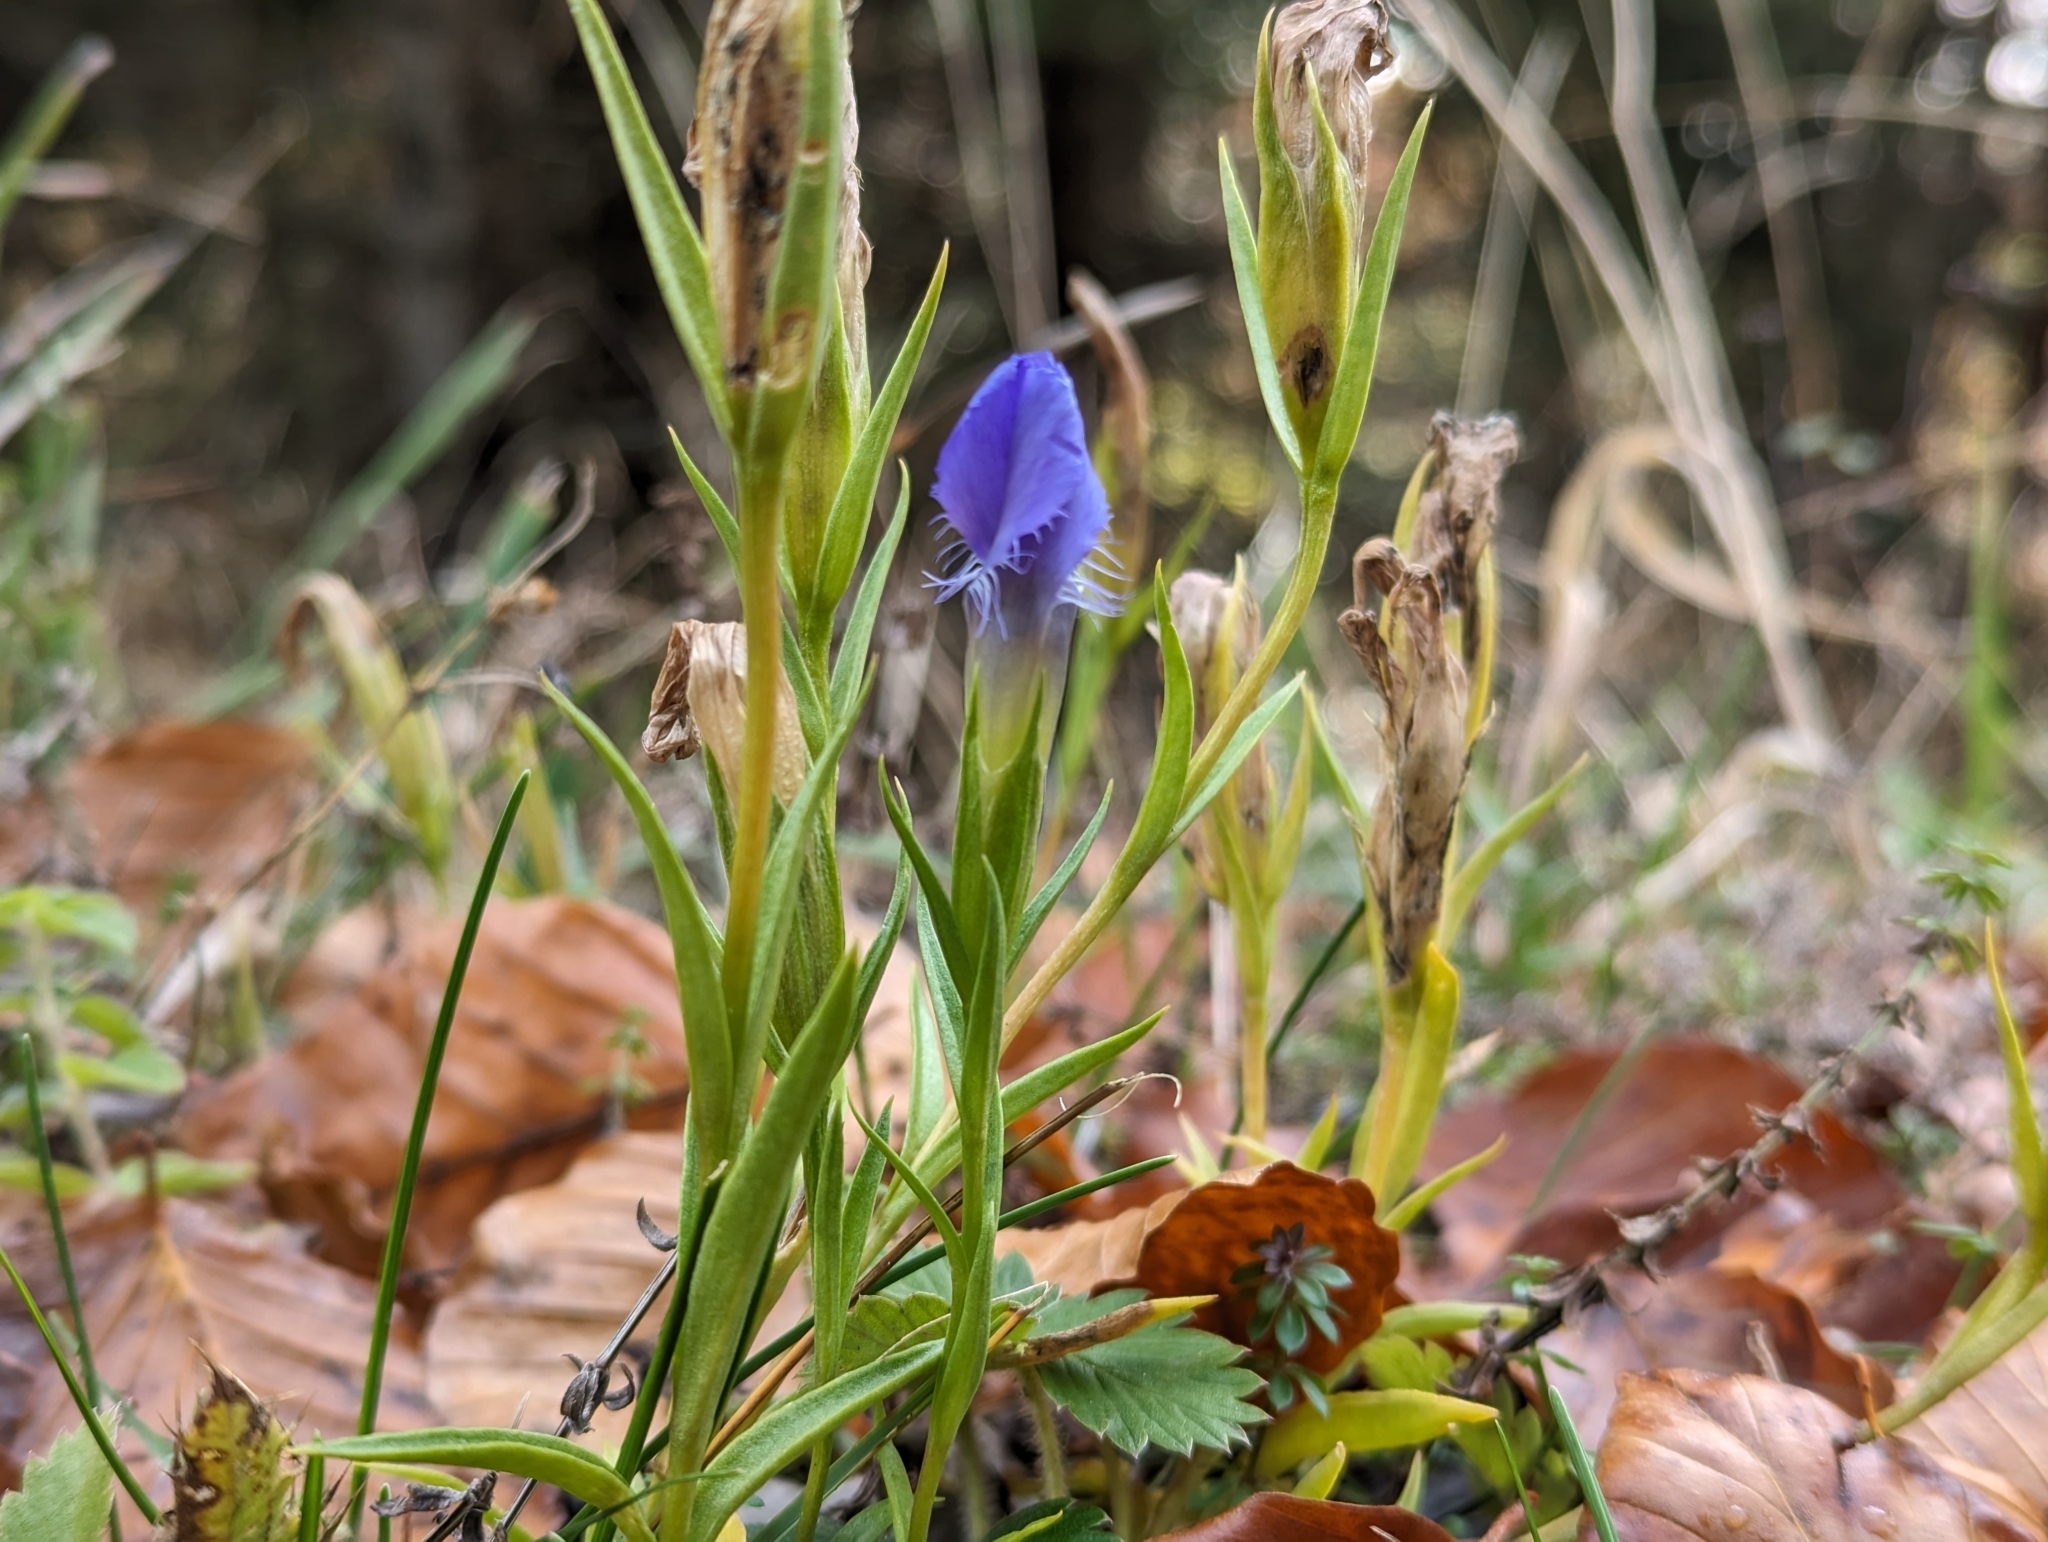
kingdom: Plantae
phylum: Tracheophyta
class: Magnoliopsida
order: Gentianales
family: Gentianaceae
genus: Gentianopsis
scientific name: Gentianopsis ciliata
